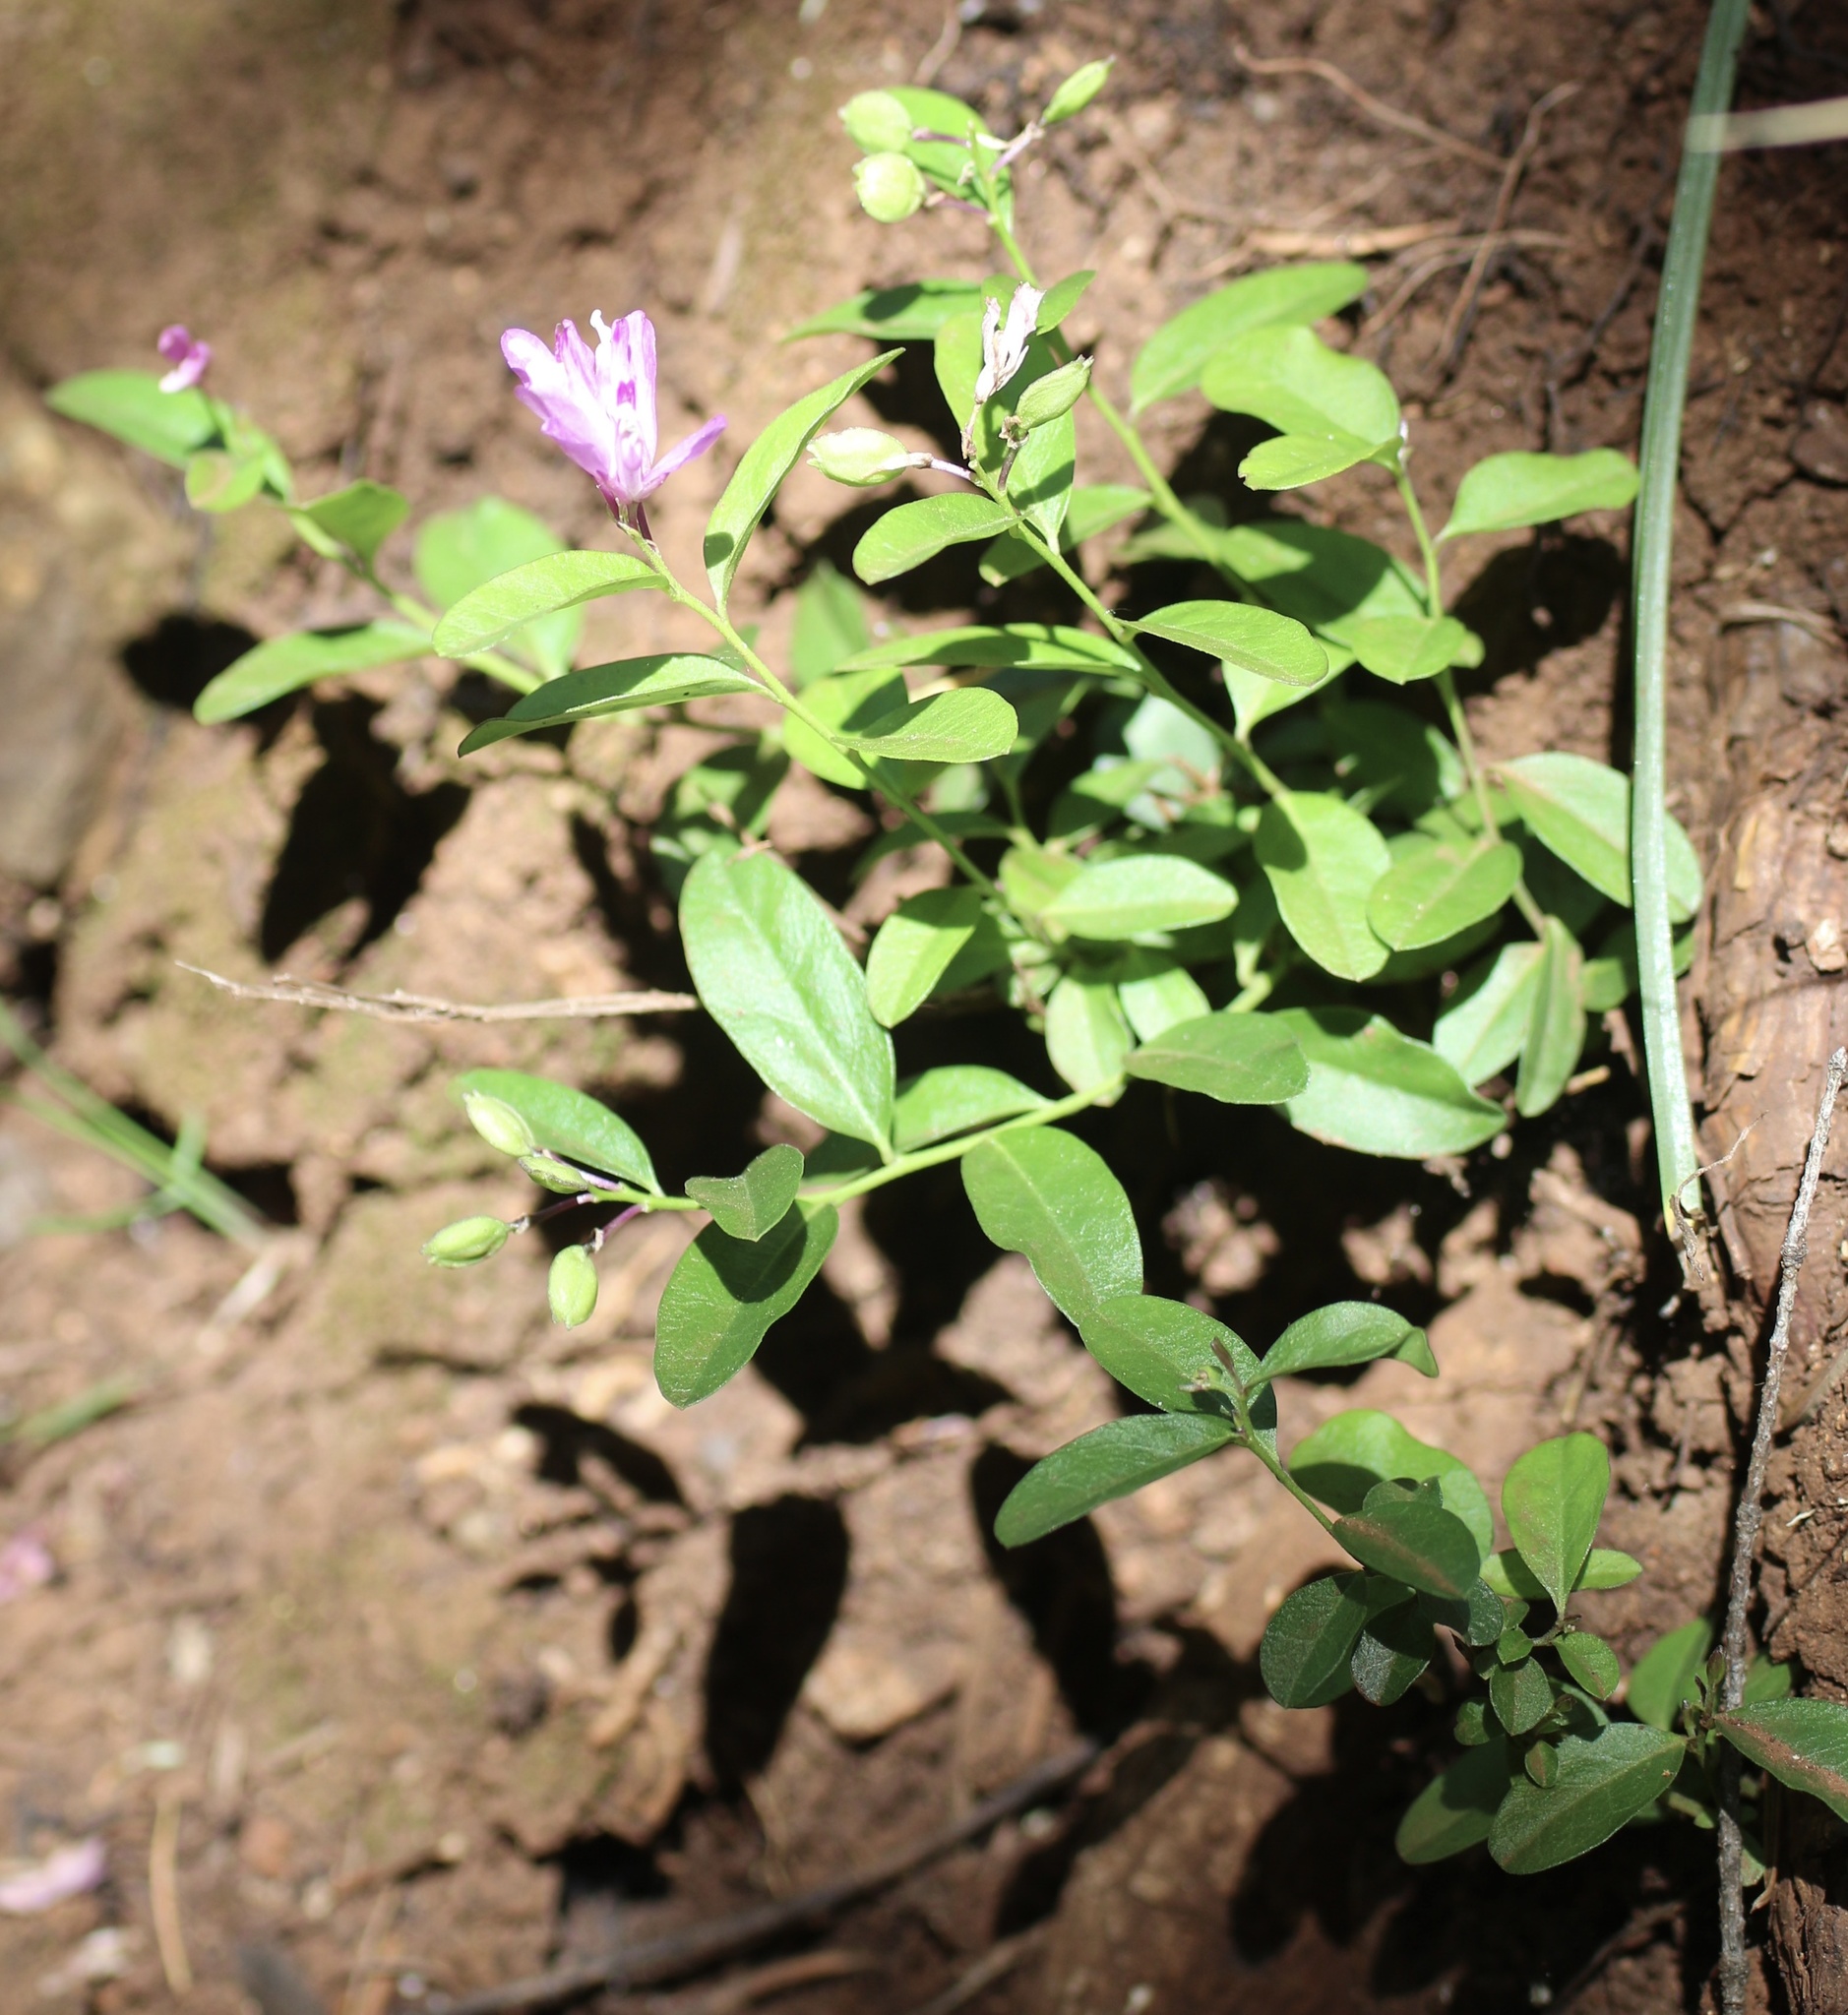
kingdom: Plantae
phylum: Tracheophyta
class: Magnoliopsida
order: Fabales
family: Polygalaceae
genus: Rhinotropis
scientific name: Rhinotropis californica
